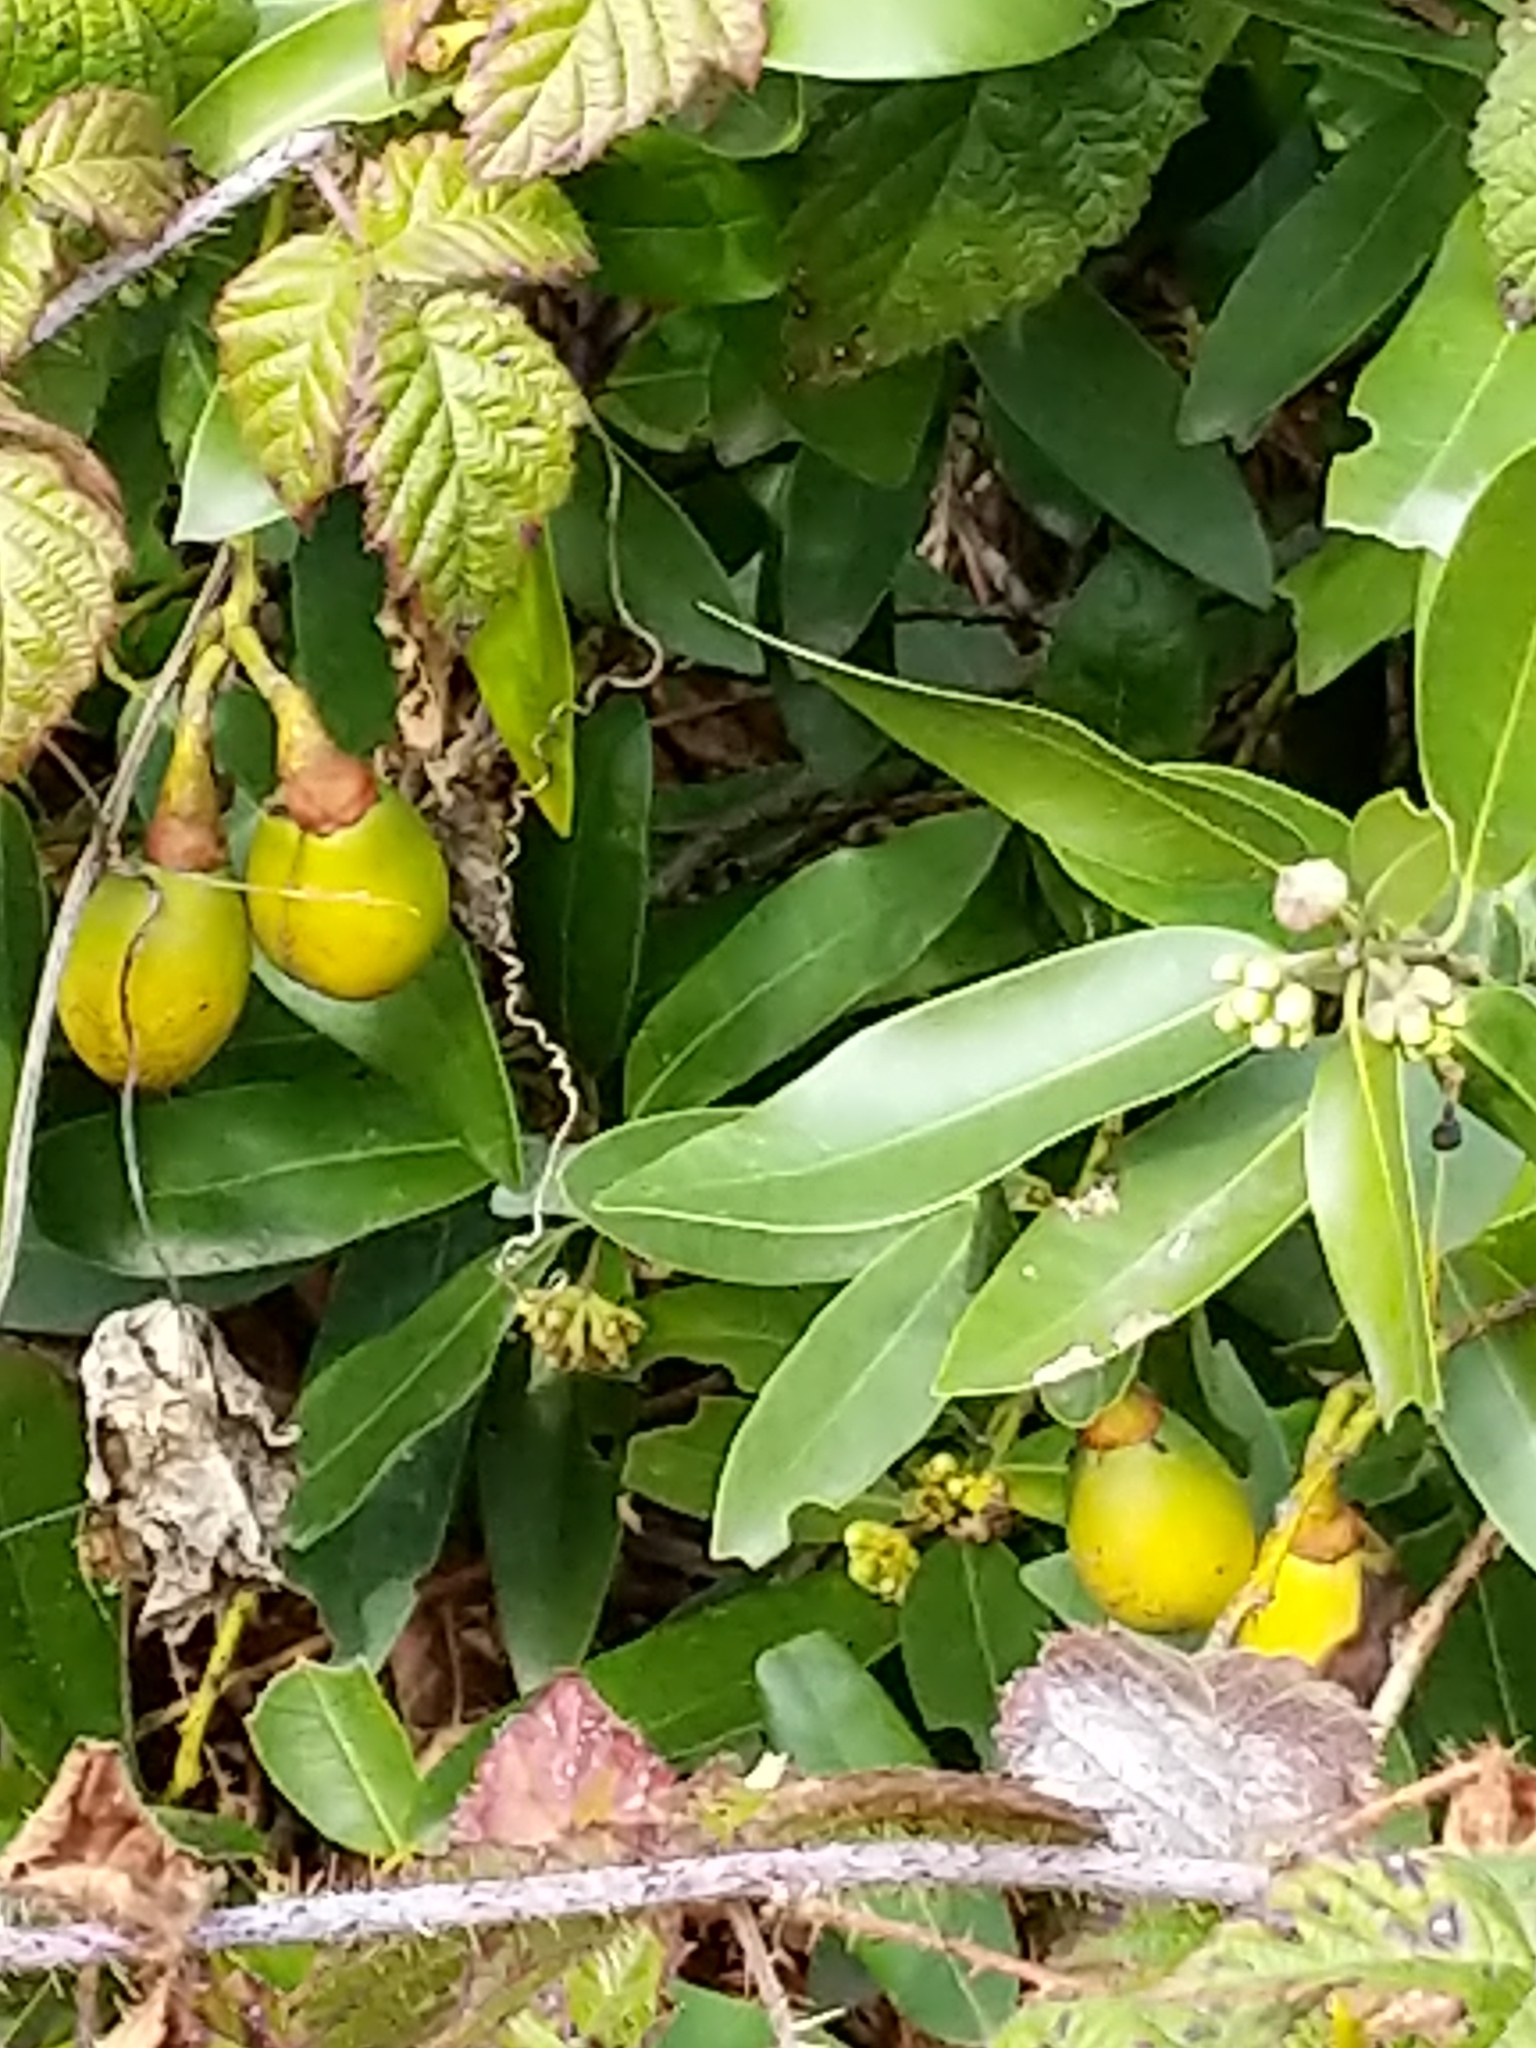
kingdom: Plantae
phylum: Tracheophyta
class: Magnoliopsida
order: Laurales
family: Lauraceae
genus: Umbellularia
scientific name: Umbellularia californica
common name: California bay
